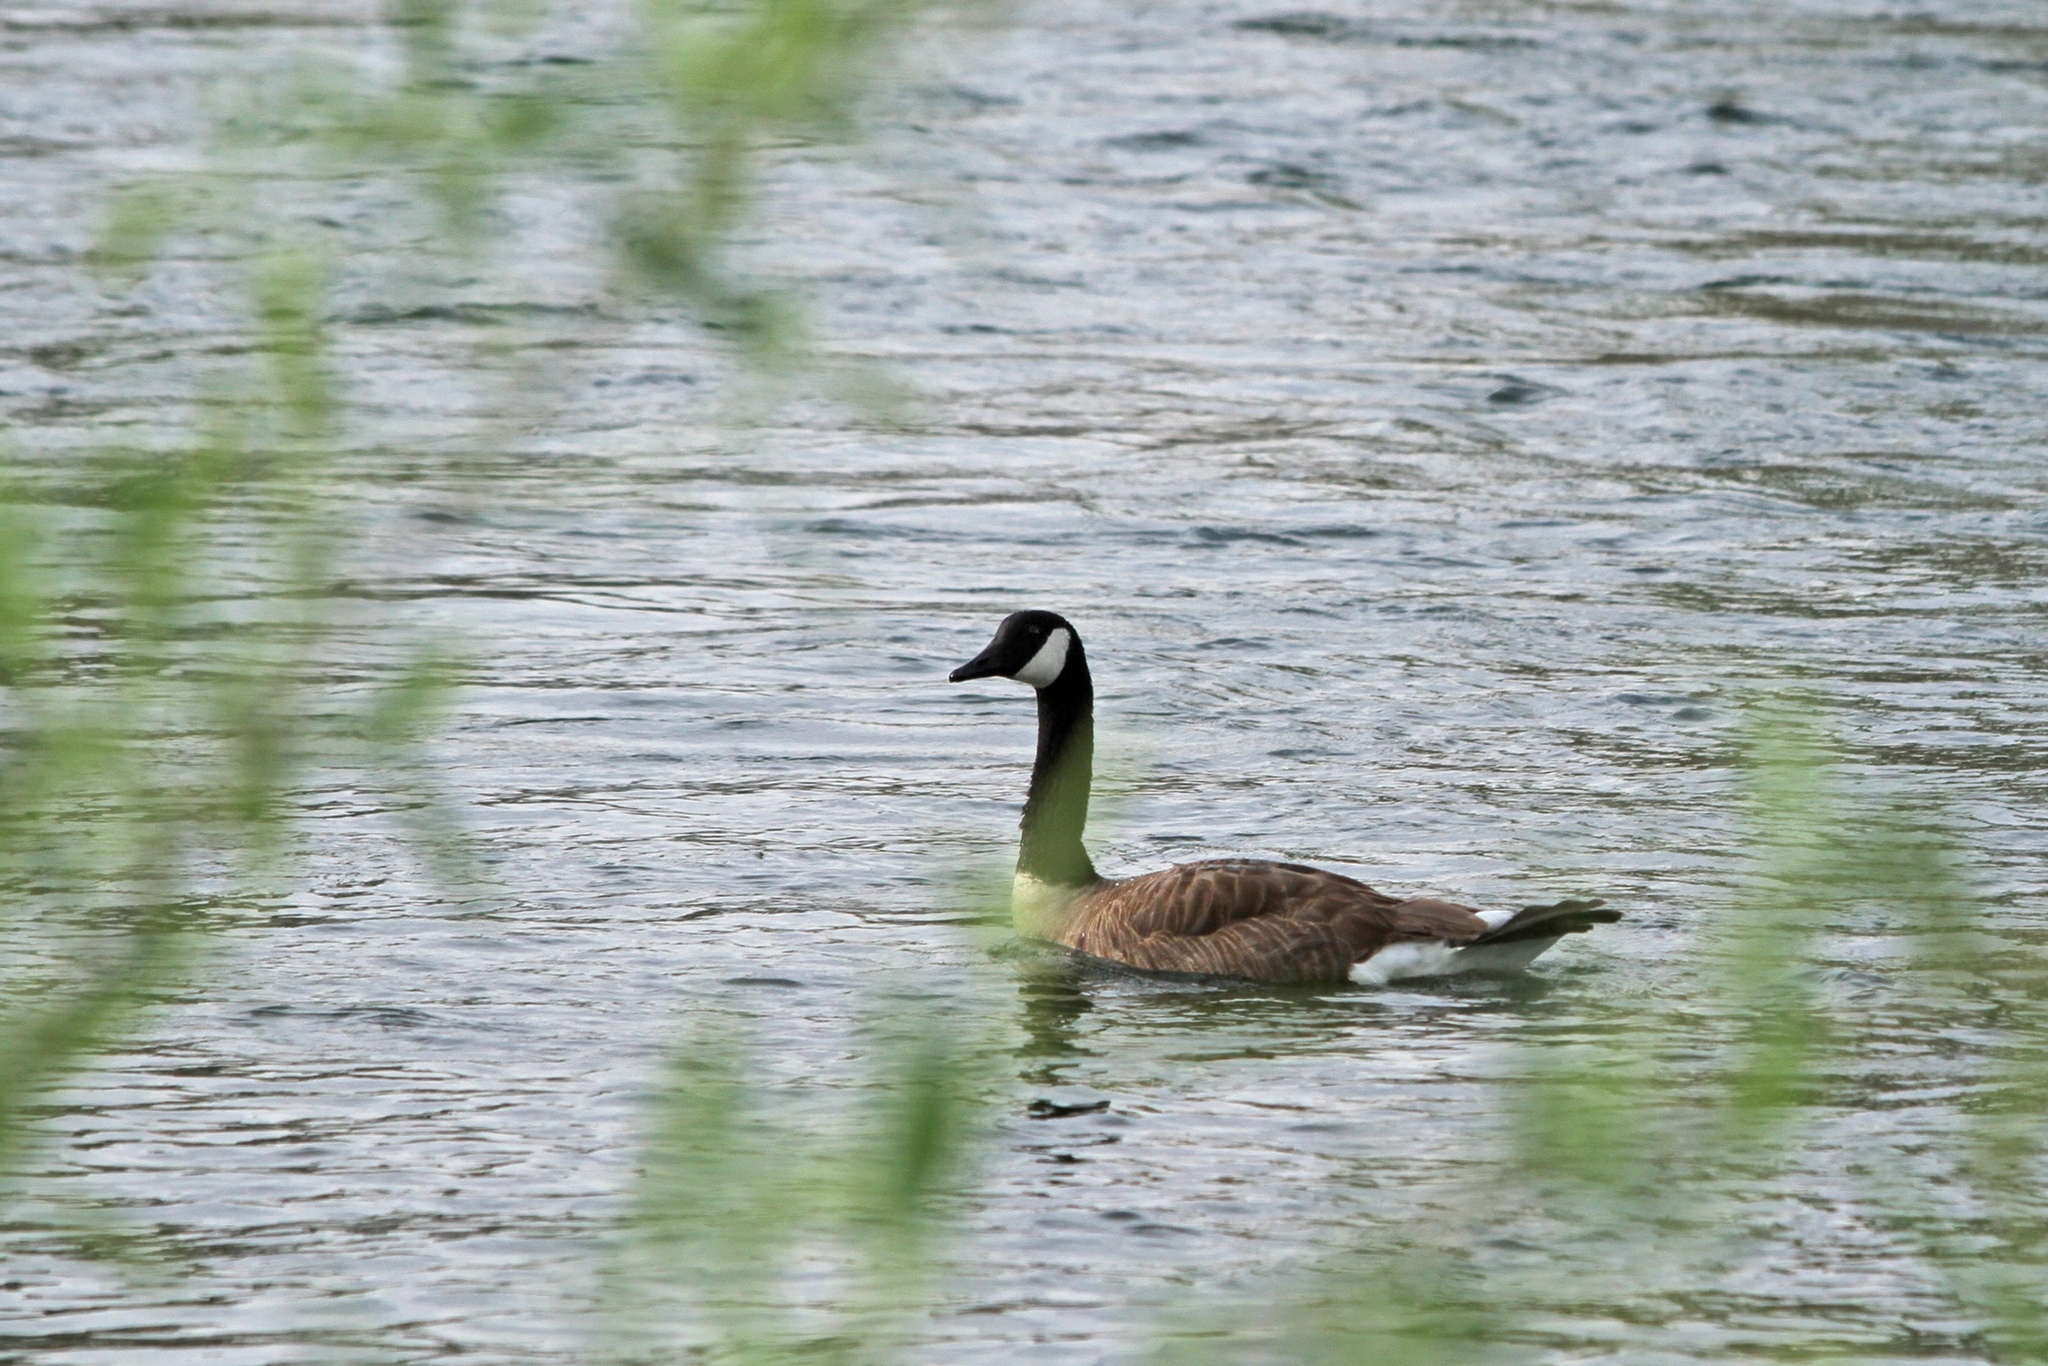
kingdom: Animalia
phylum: Chordata
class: Aves
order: Anseriformes
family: Anatidae
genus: Branta
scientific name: Branta canadensis
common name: Canada goose
